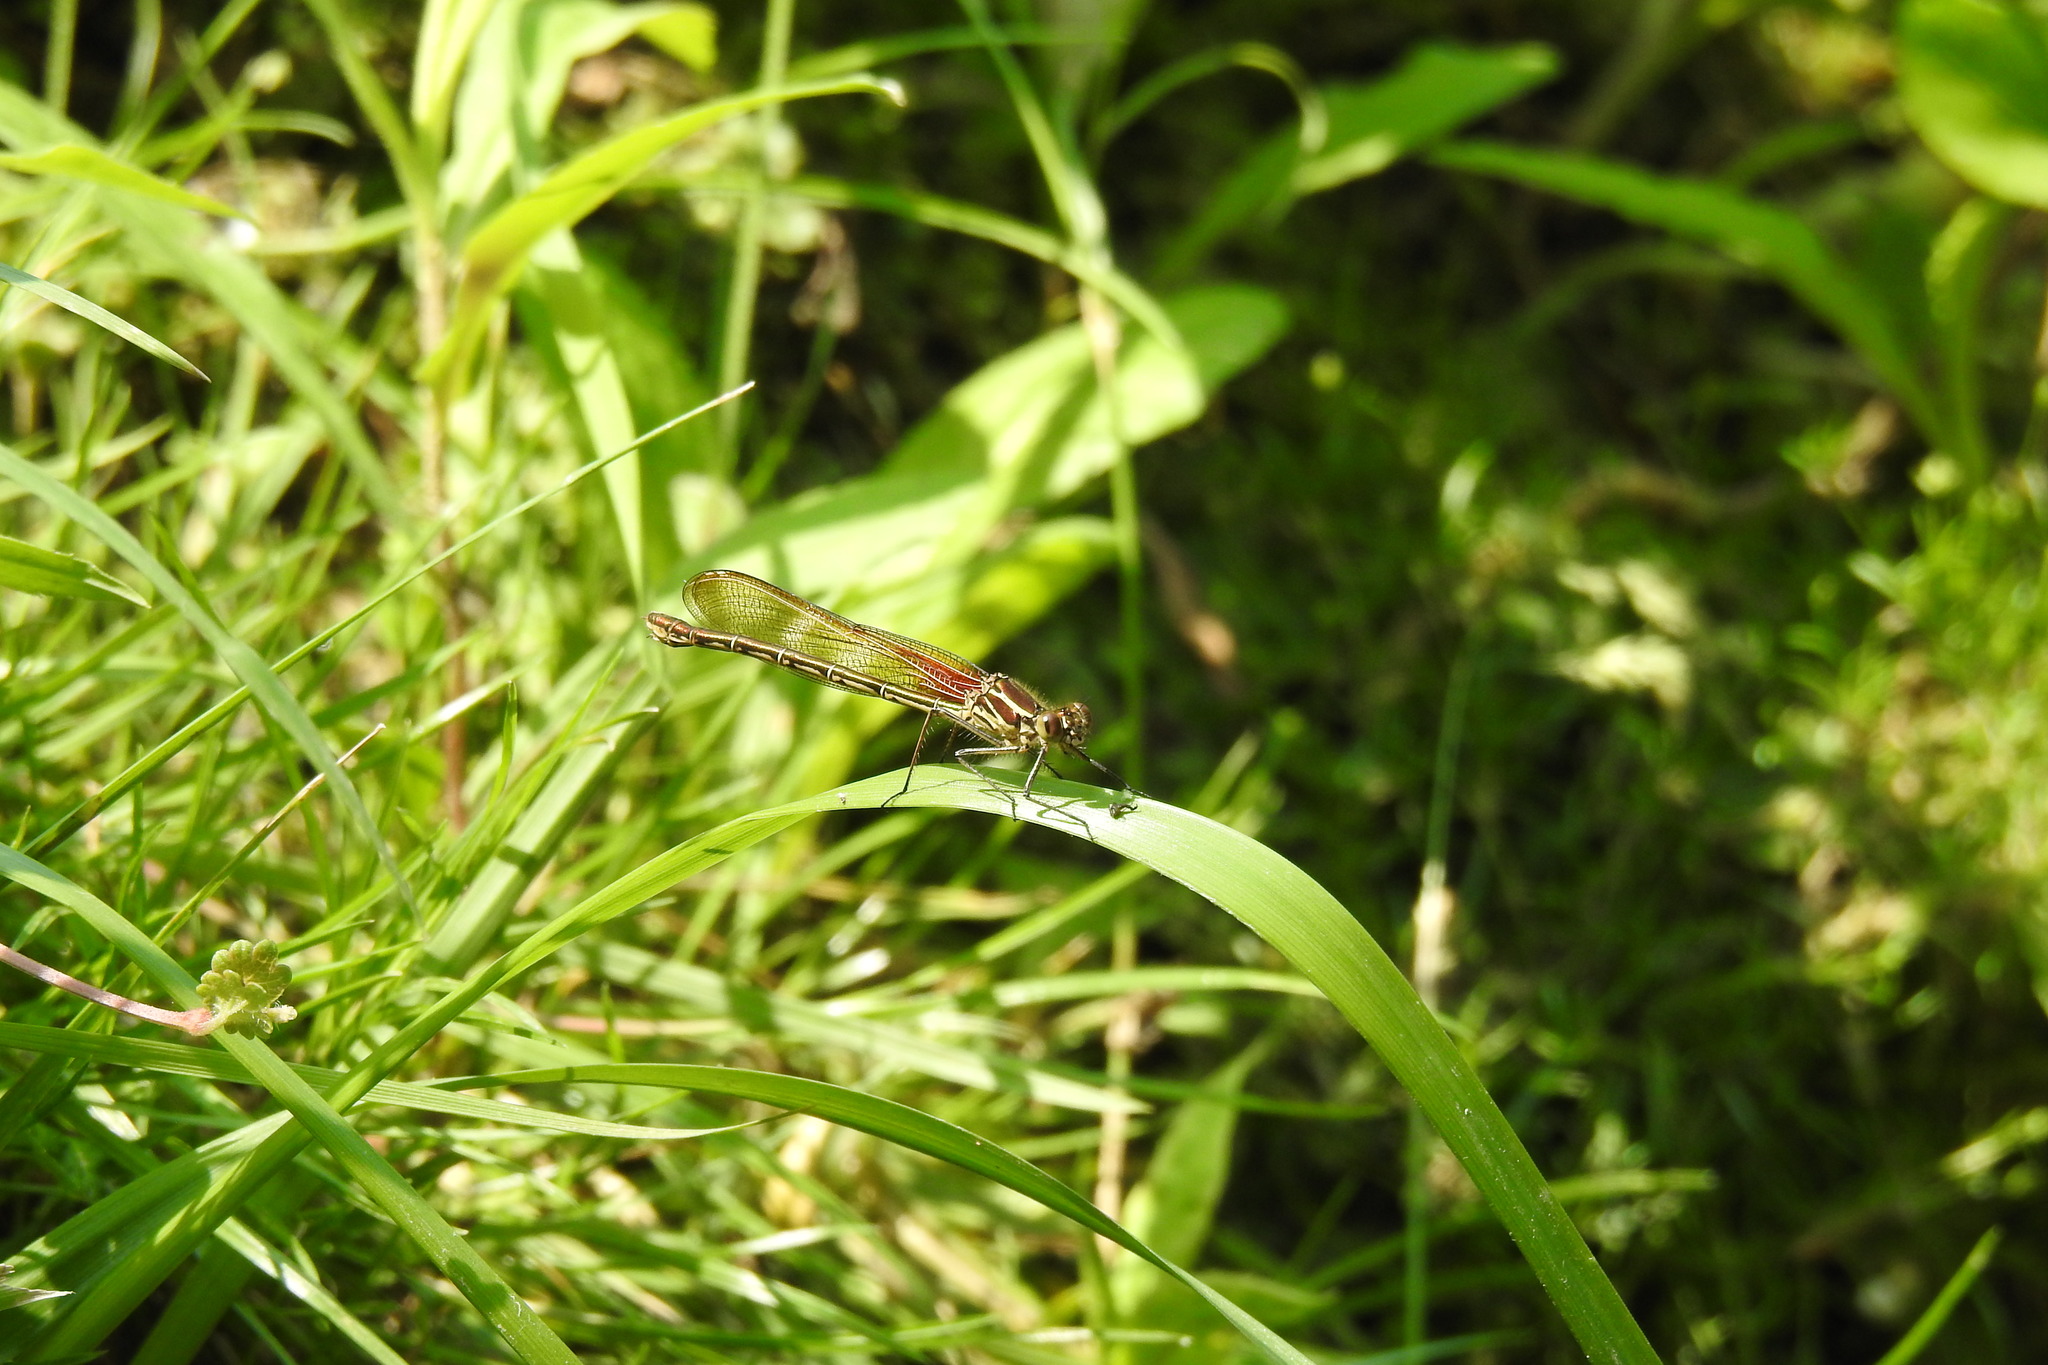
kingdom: Animalia
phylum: Arthropoda
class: Insecta
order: Odonata
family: Calopterygidae
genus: Hetaerina
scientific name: Hetaerina americana
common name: American rubyspot
